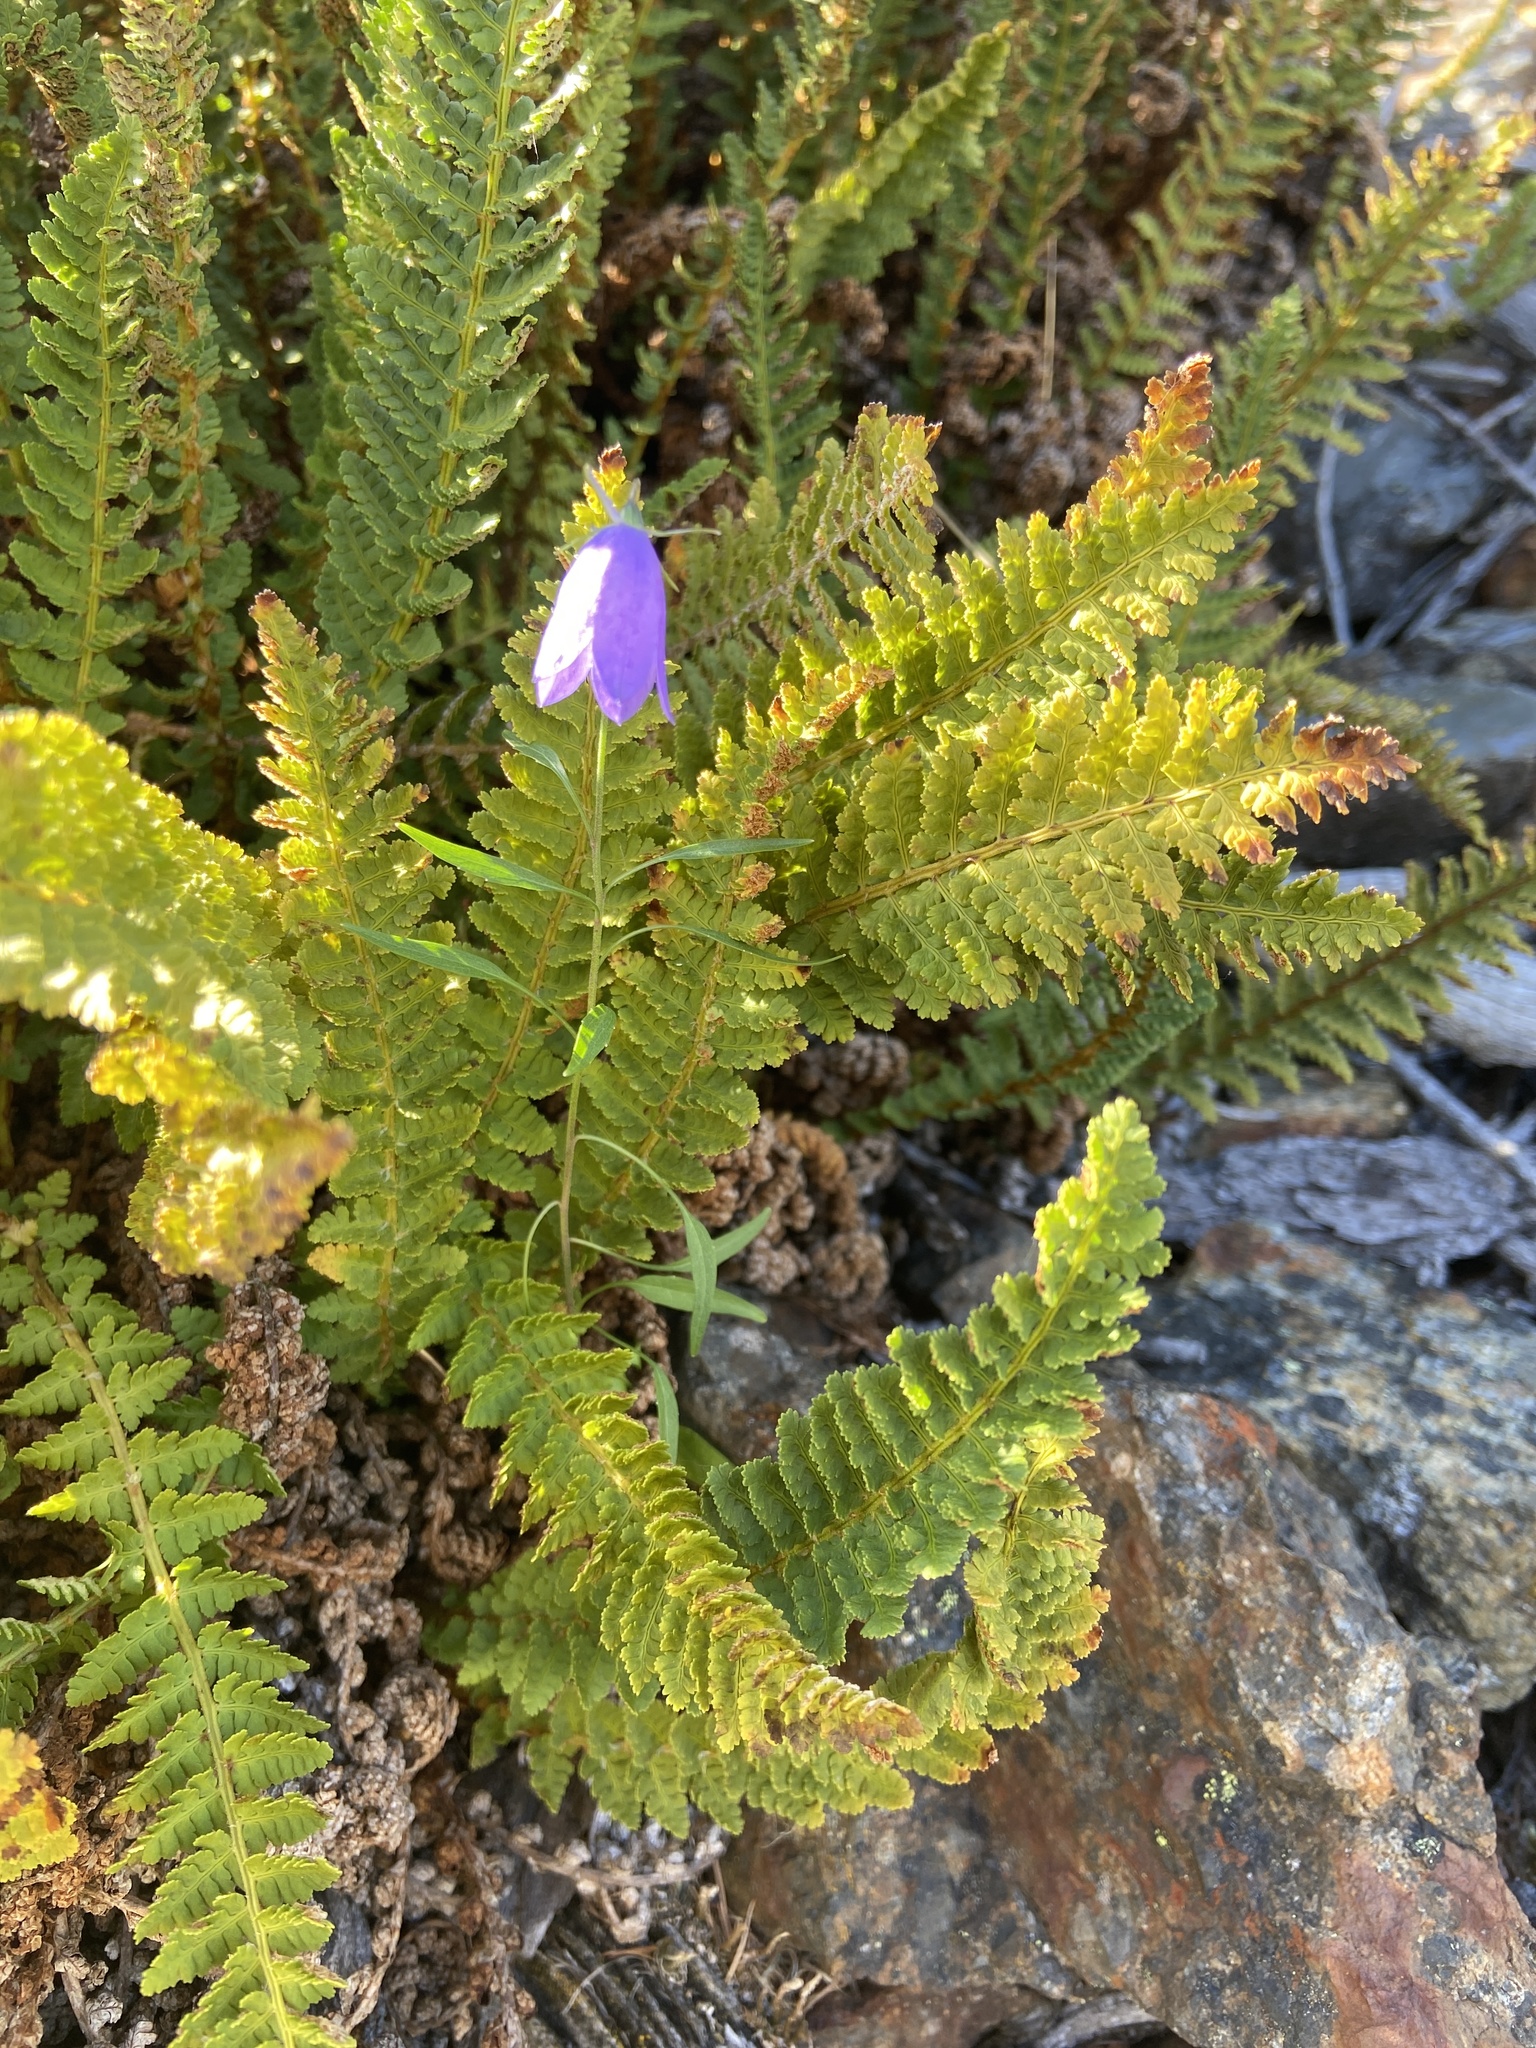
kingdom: Plantae
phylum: Tracheophyta
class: Magnoliopsida
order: Asterales
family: Campanulaceae
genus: Campanula
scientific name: Campanula rotundifolia
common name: Harebell
